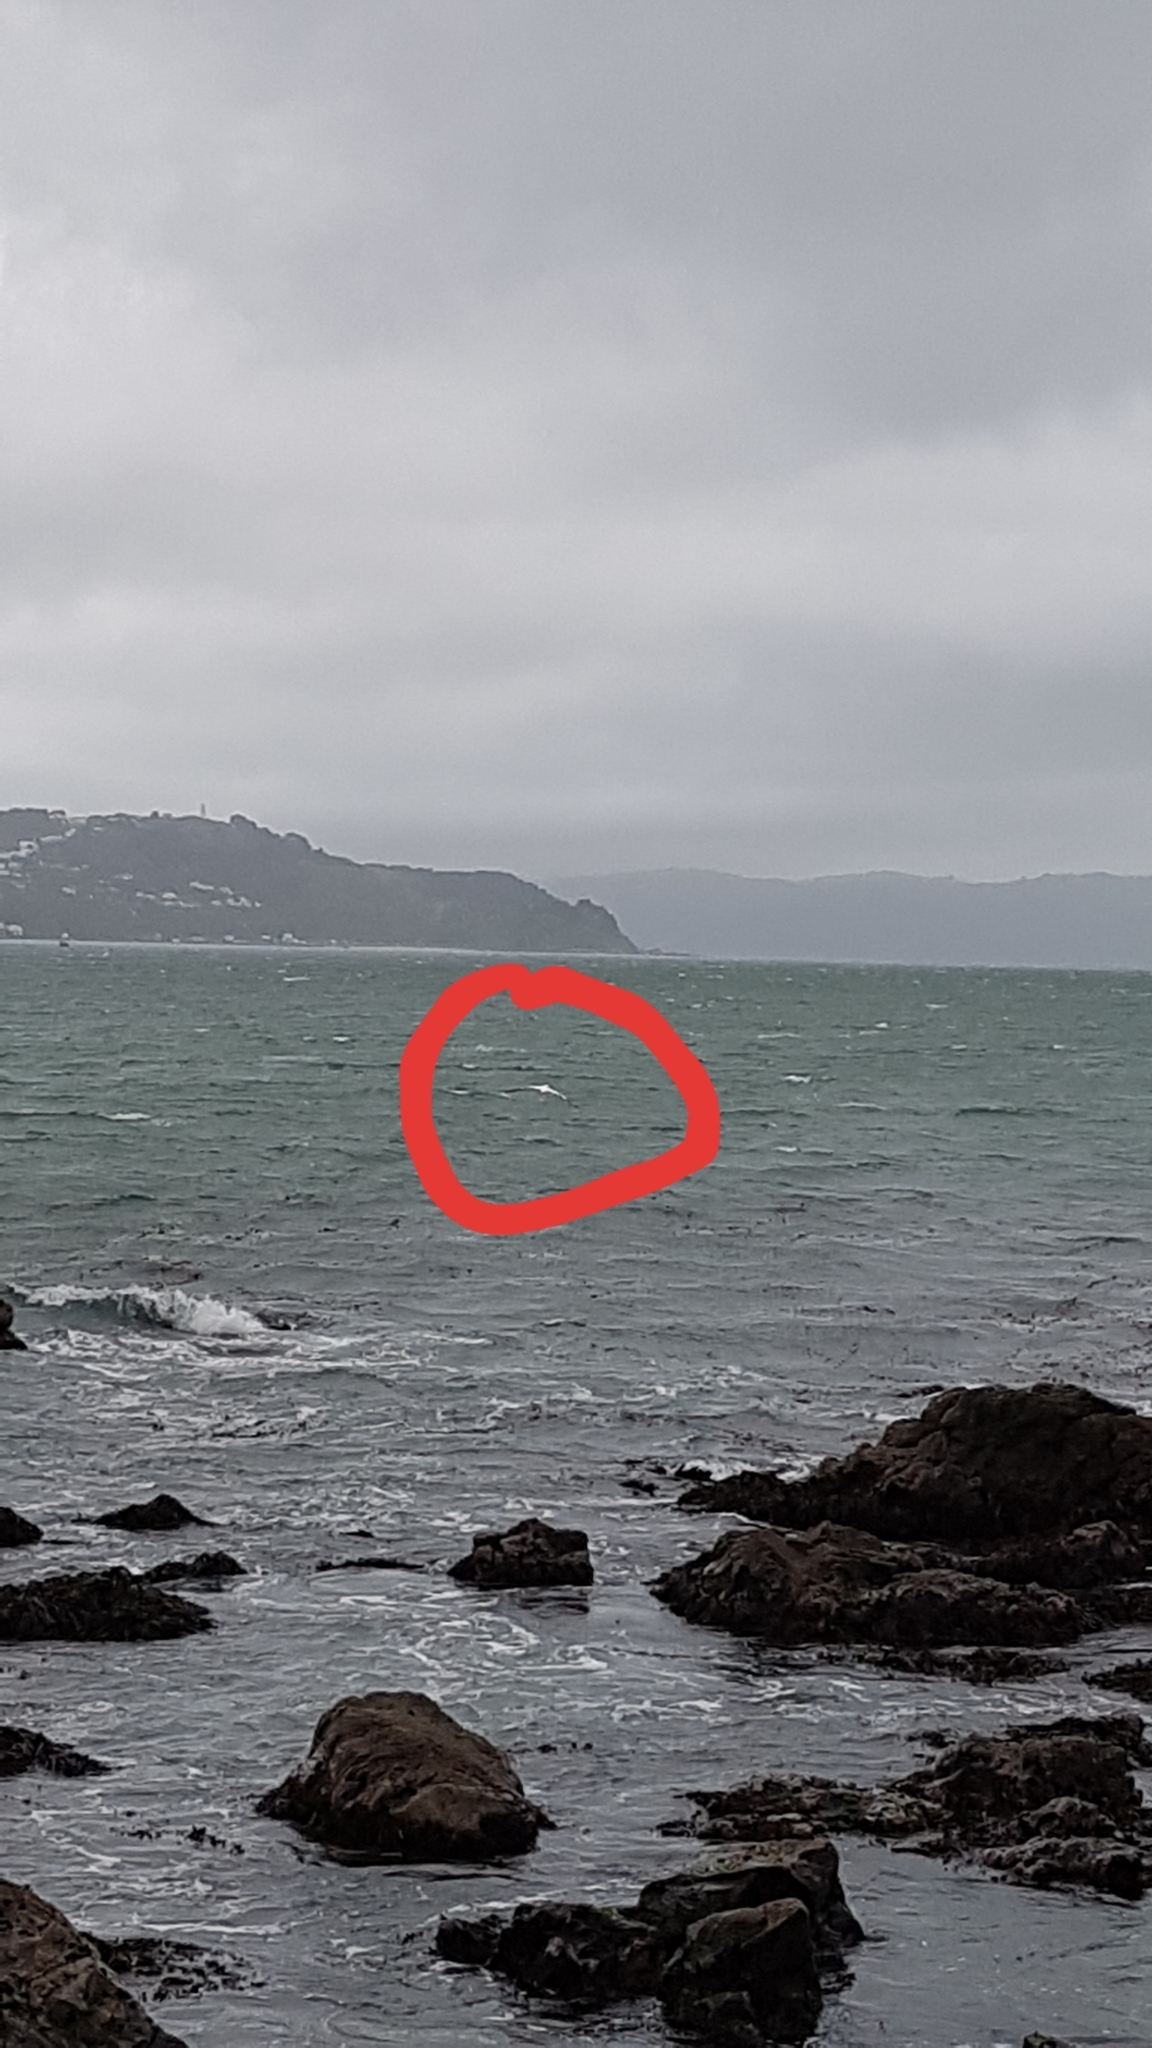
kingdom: Animalia
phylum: Chordata
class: Aves
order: Suliformes
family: Sulidae
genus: Morus
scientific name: Morus serrator
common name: Australasian gannet
